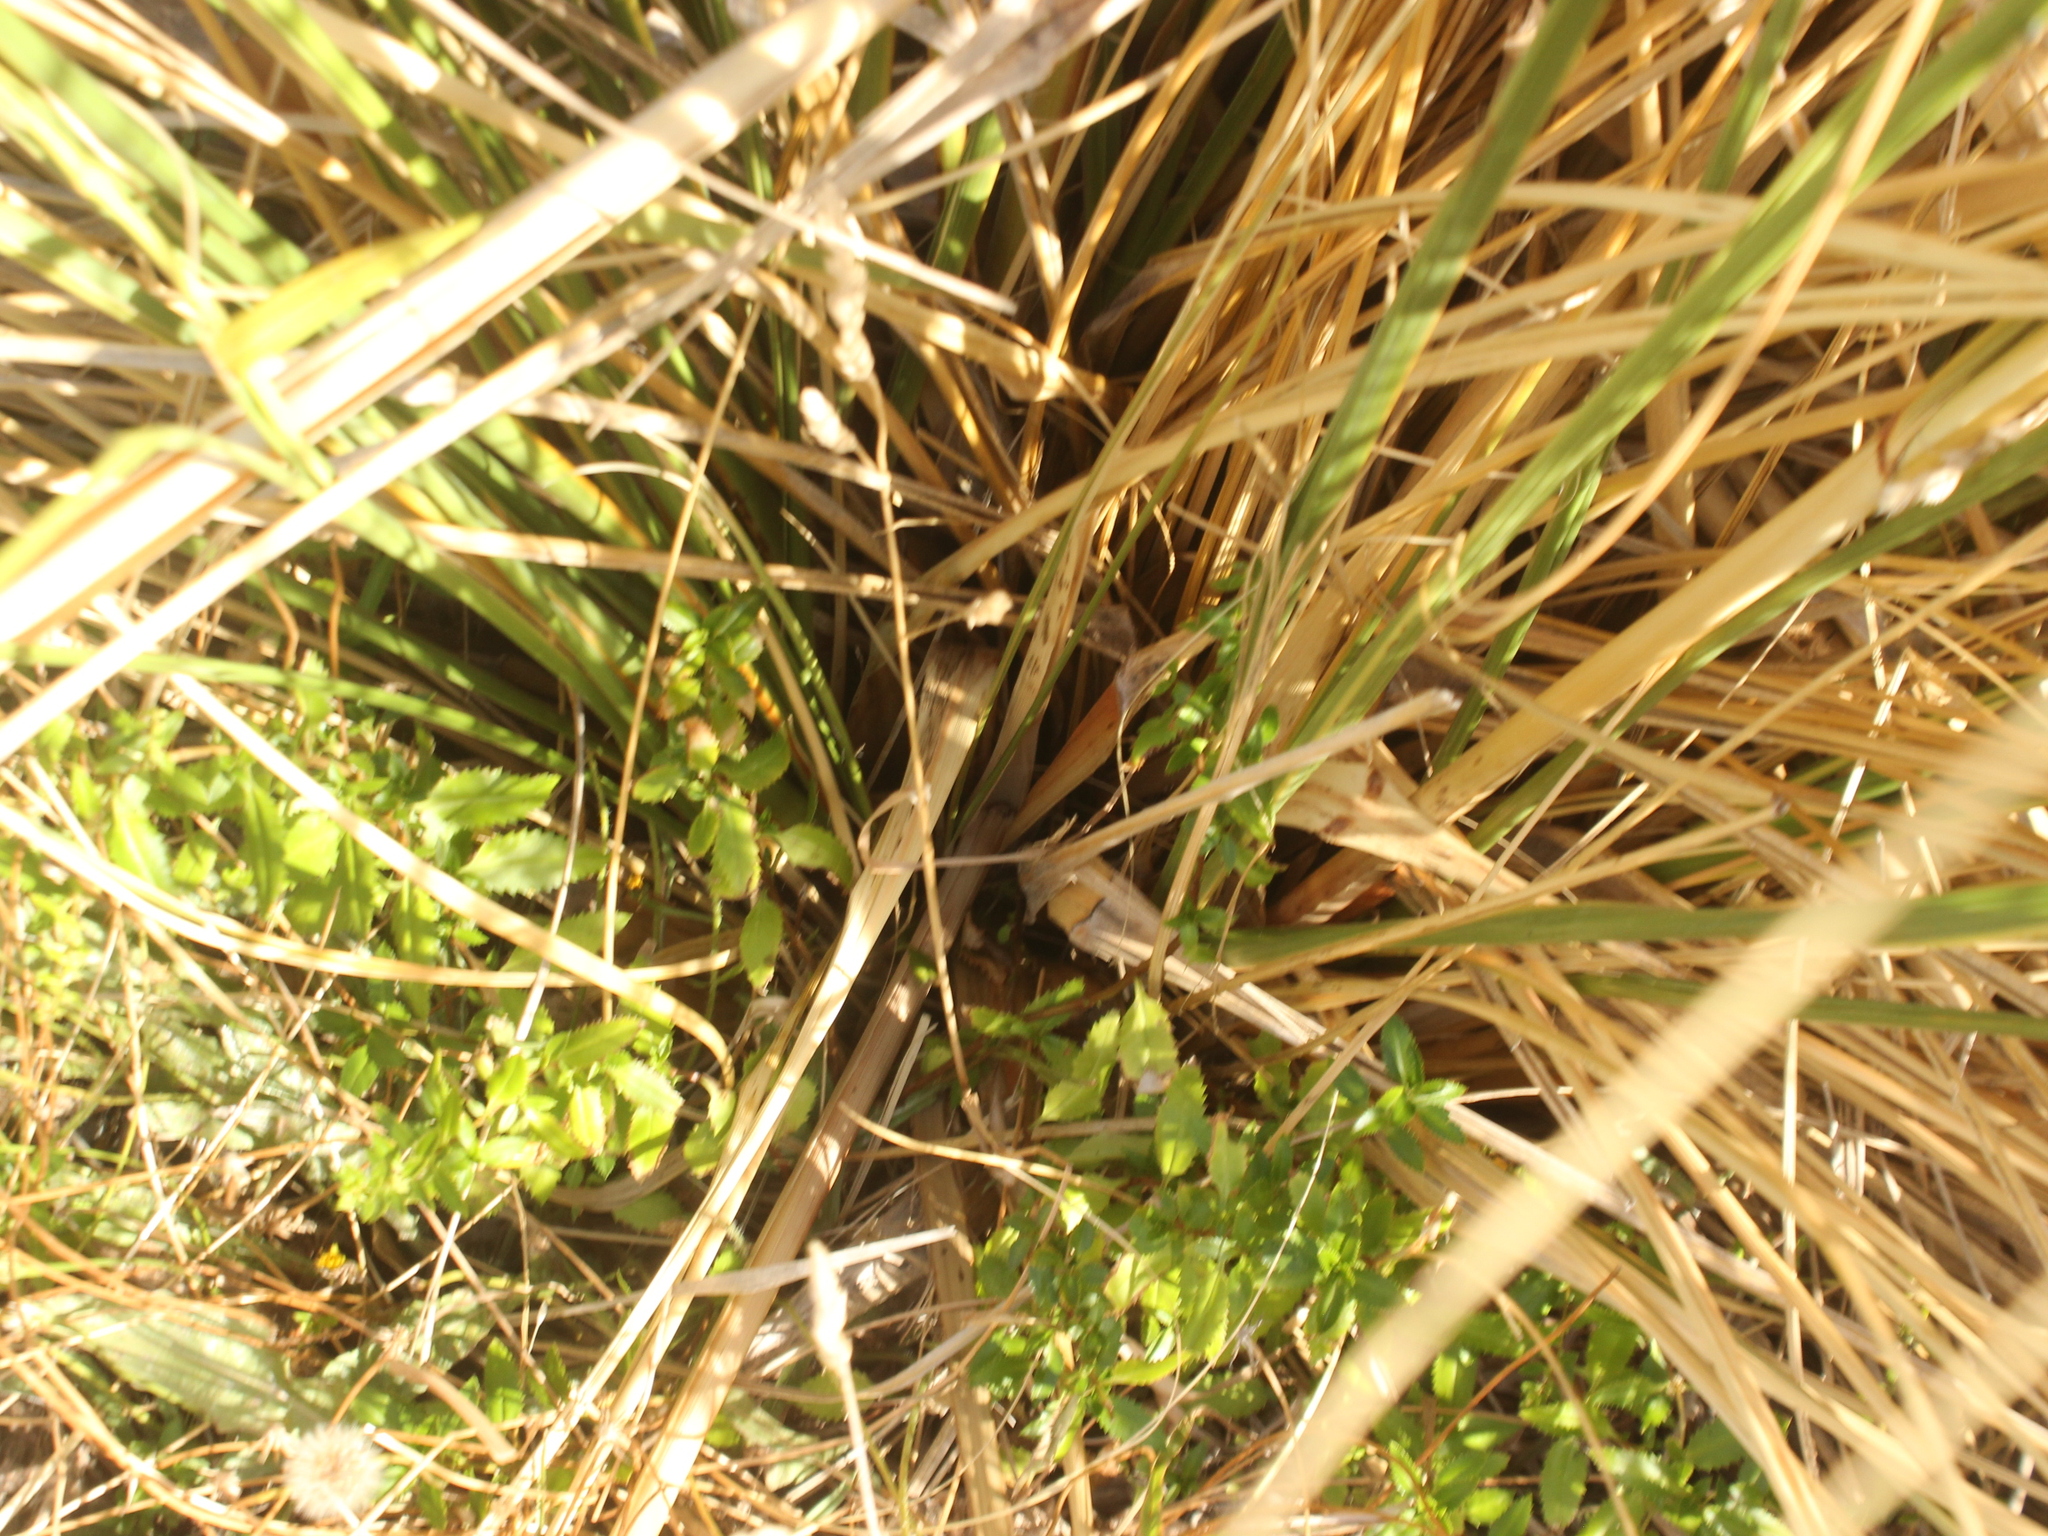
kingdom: Plantae
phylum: Tracheophyta
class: Liliopsida
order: Poales
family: Poaceae
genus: Austroderia
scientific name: Austroderia toetoe
